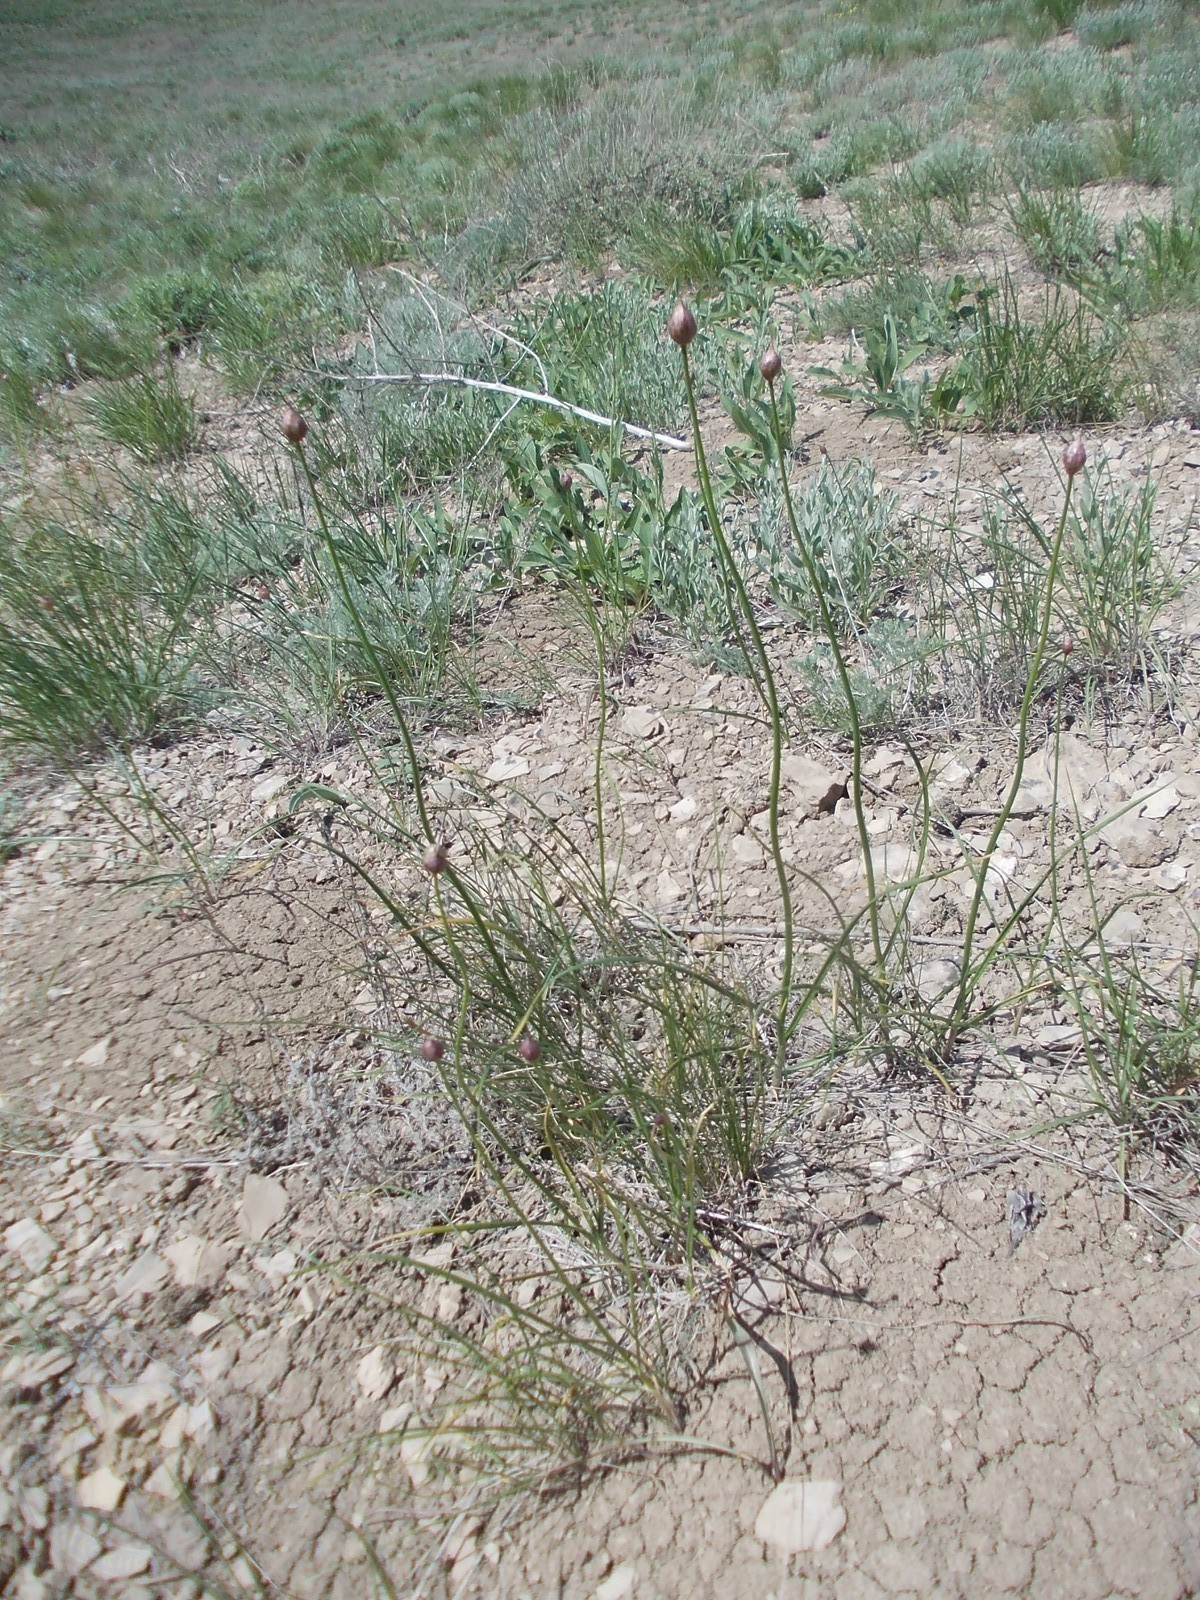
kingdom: Plantae
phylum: Tracheophyta
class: Liliopsida
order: Asparagales
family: Amaryllidaceae
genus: Allium
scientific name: Allium inderiense
